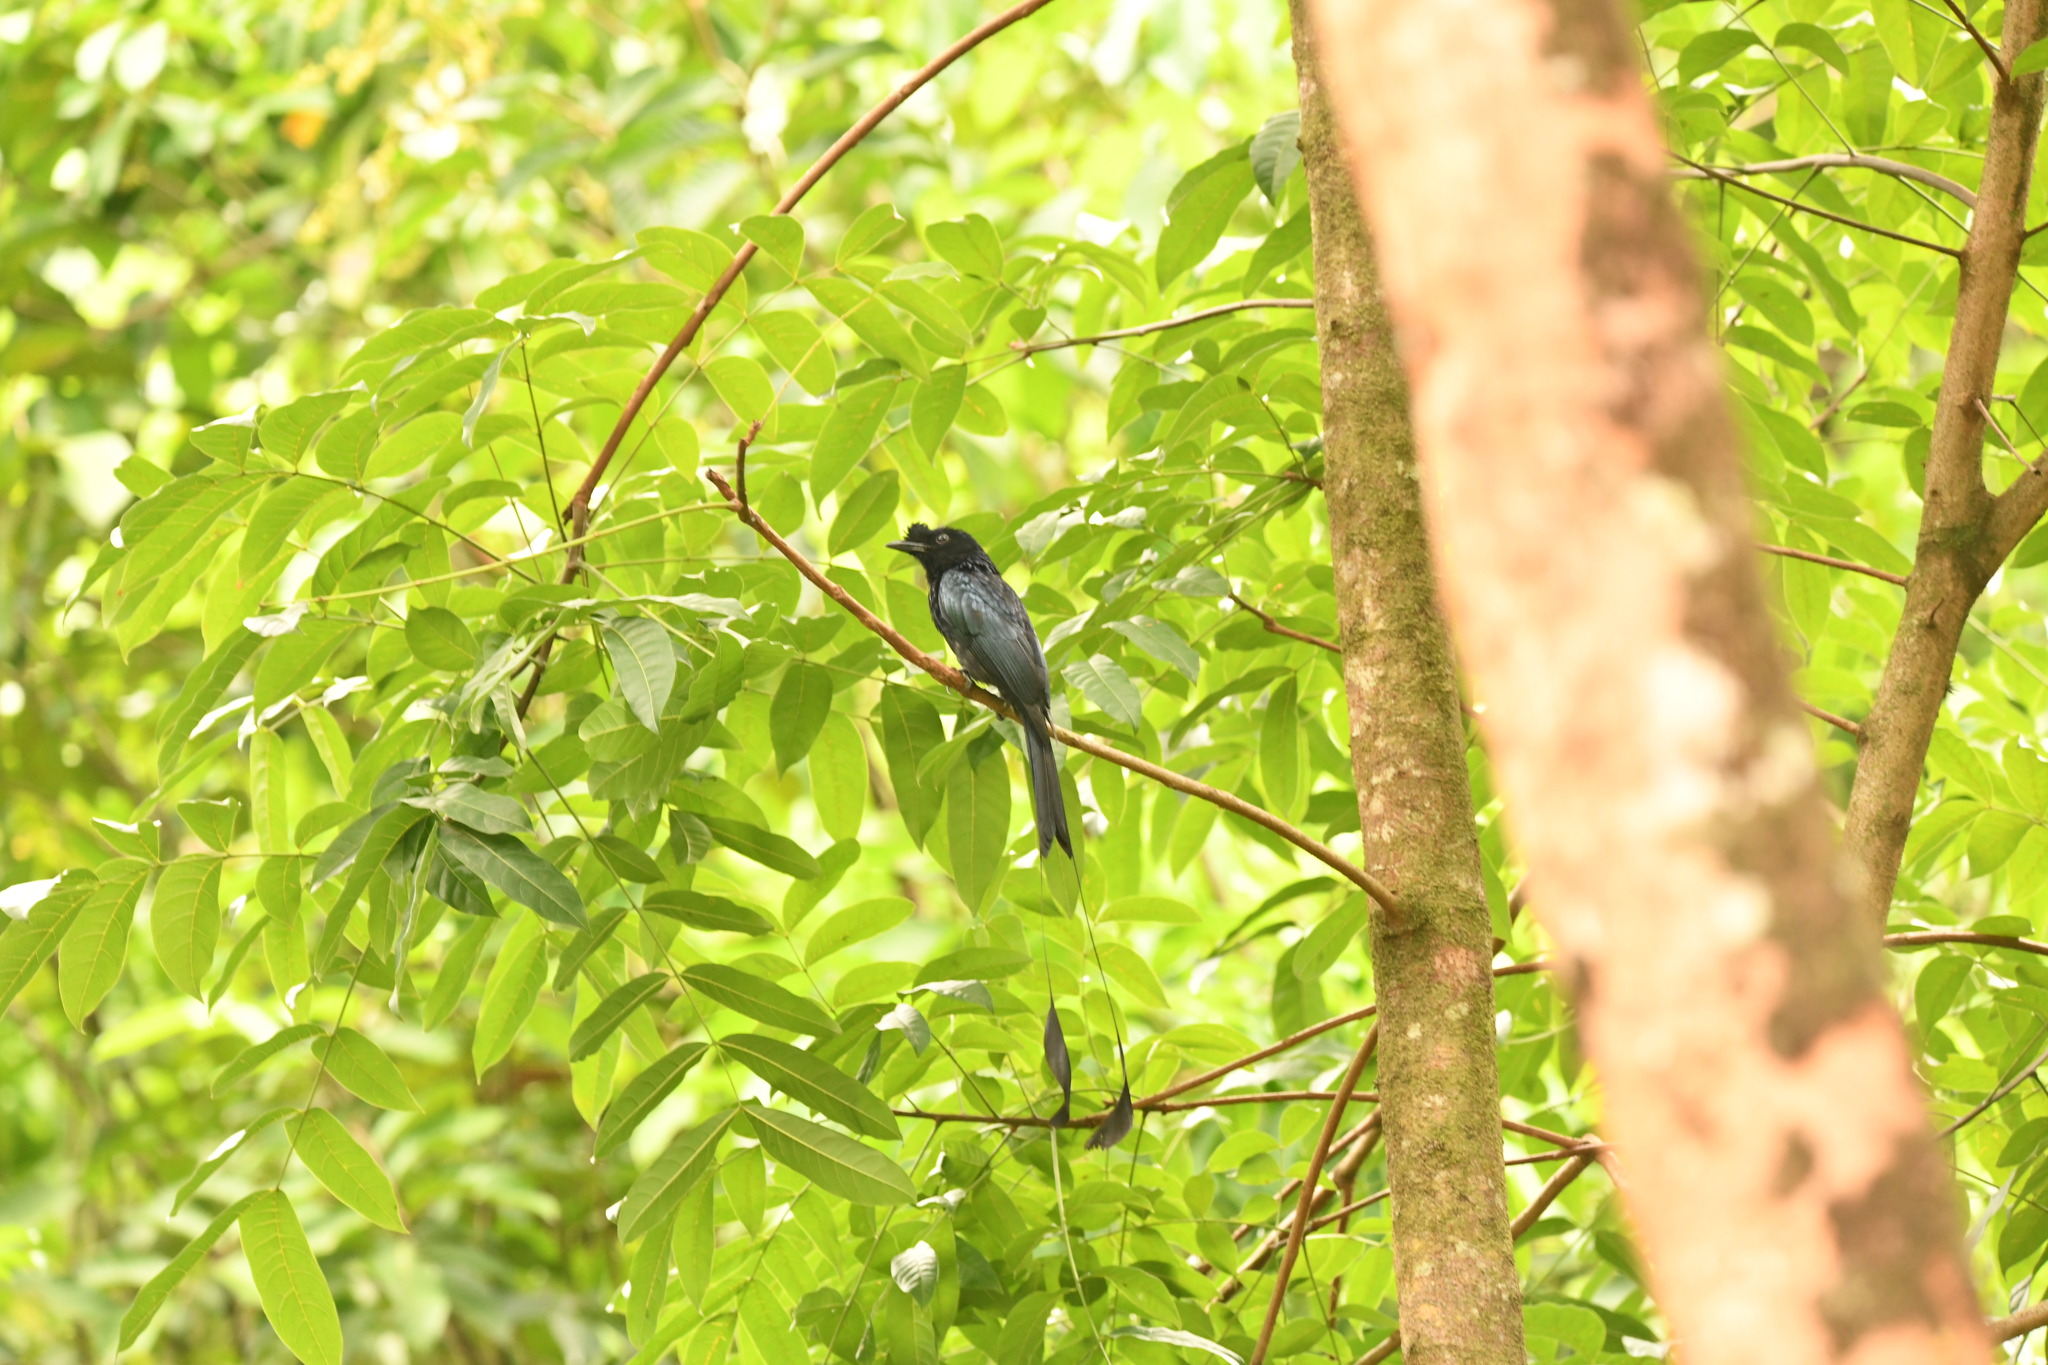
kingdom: Animalia
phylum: Chordata
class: Aves
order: Passeriformes
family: Dicruridae
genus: Dicrurus
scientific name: Dicrurus paradiseus
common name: Greater racket-tailed drongo
